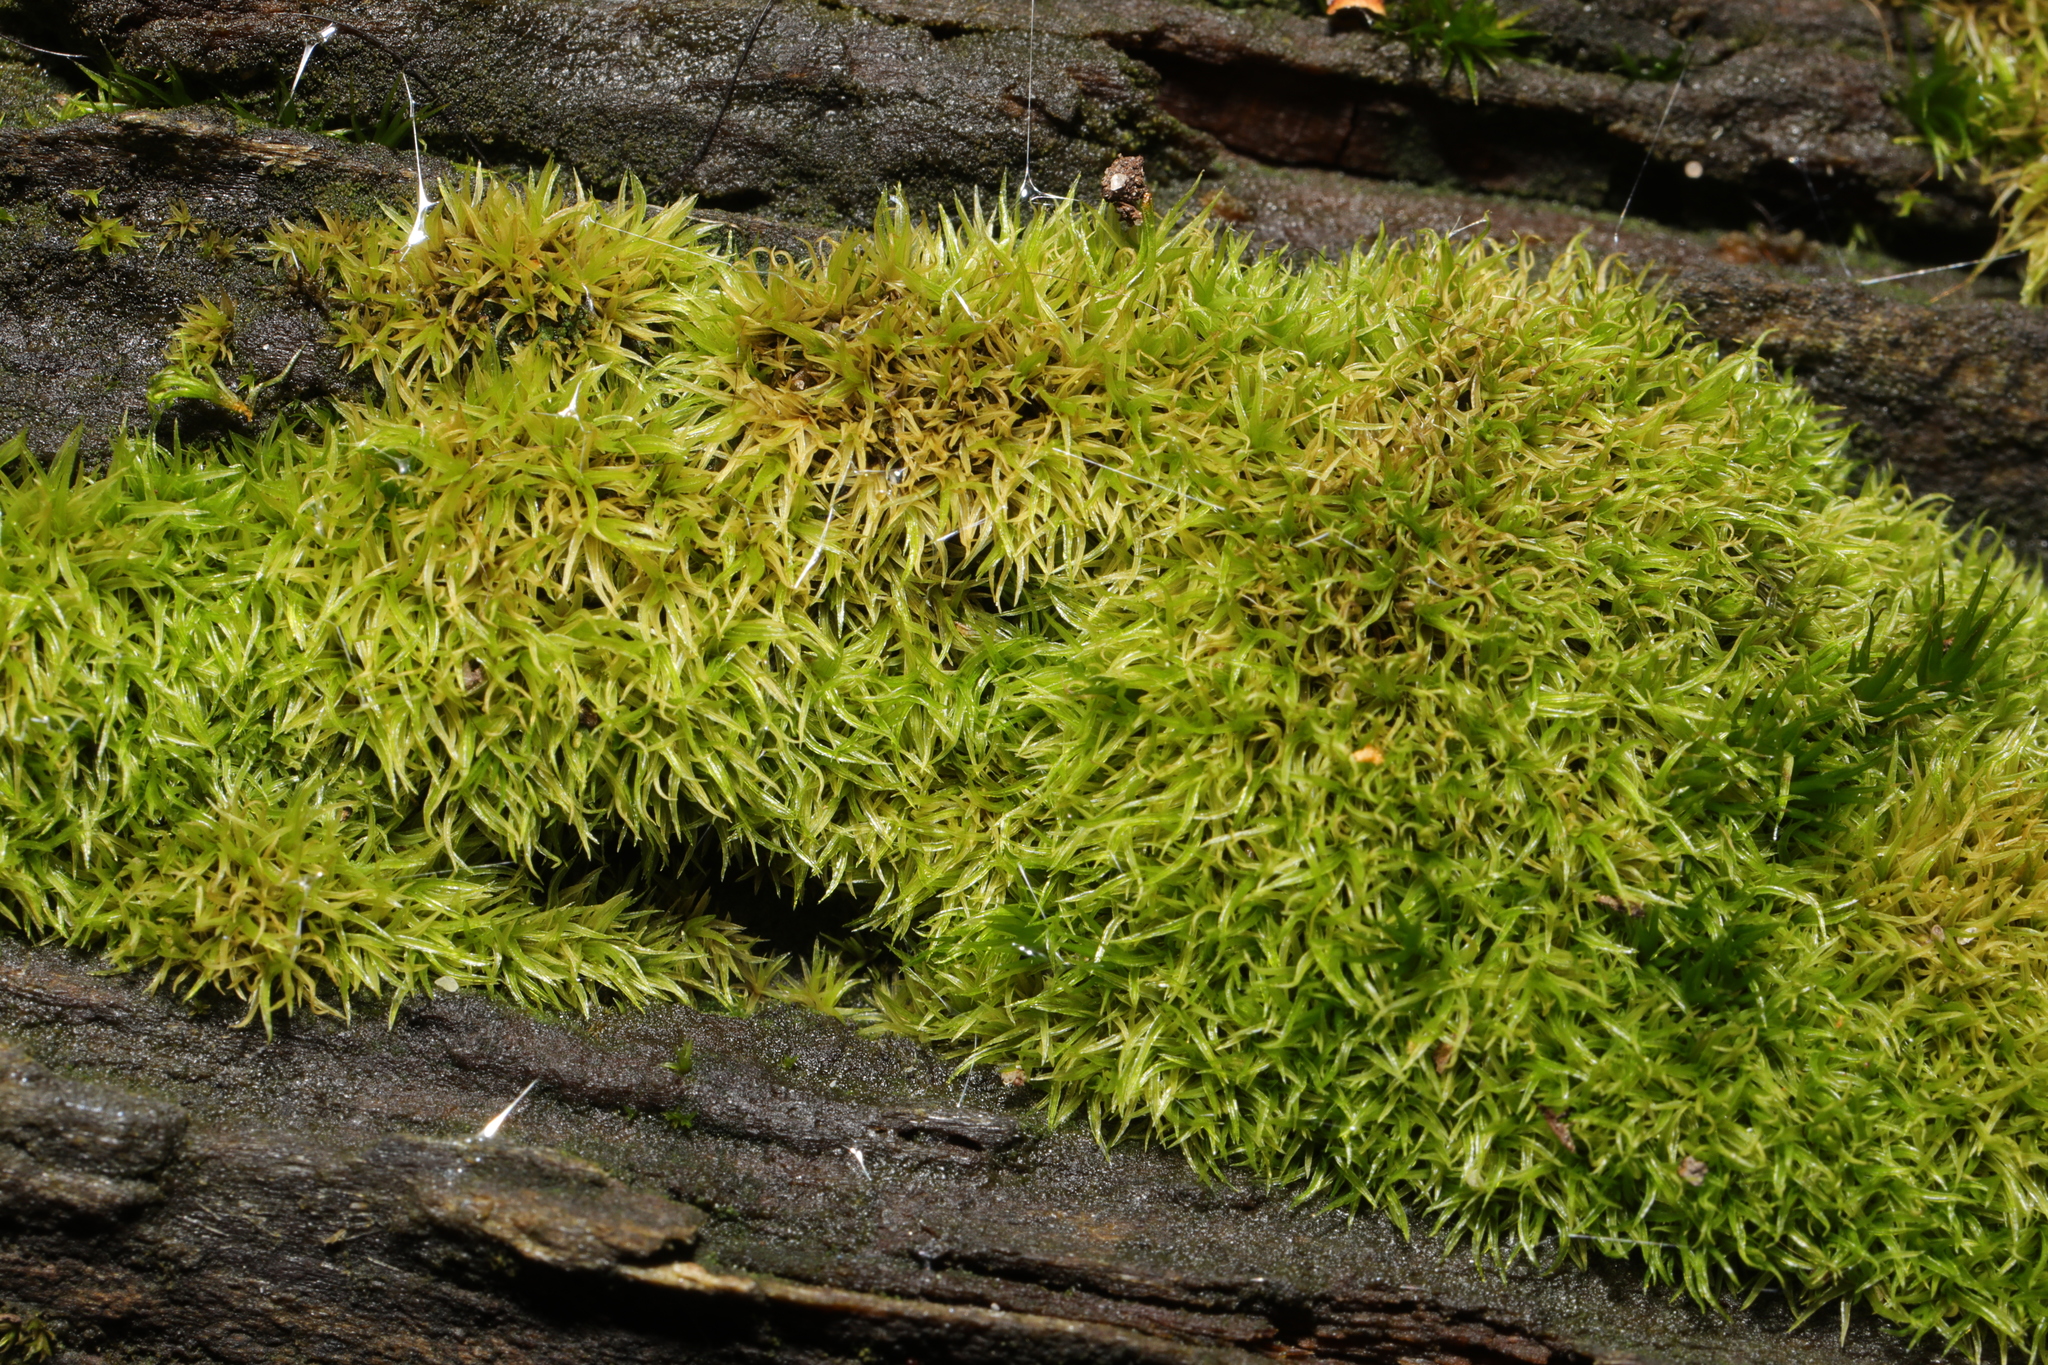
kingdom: Plantae
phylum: Bryophyta
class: Bryopsida
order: Dicranales
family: Rhabdoweisiaceae
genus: Dicranoweisia
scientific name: Dicranoweisia cirrata
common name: Common pincushion
